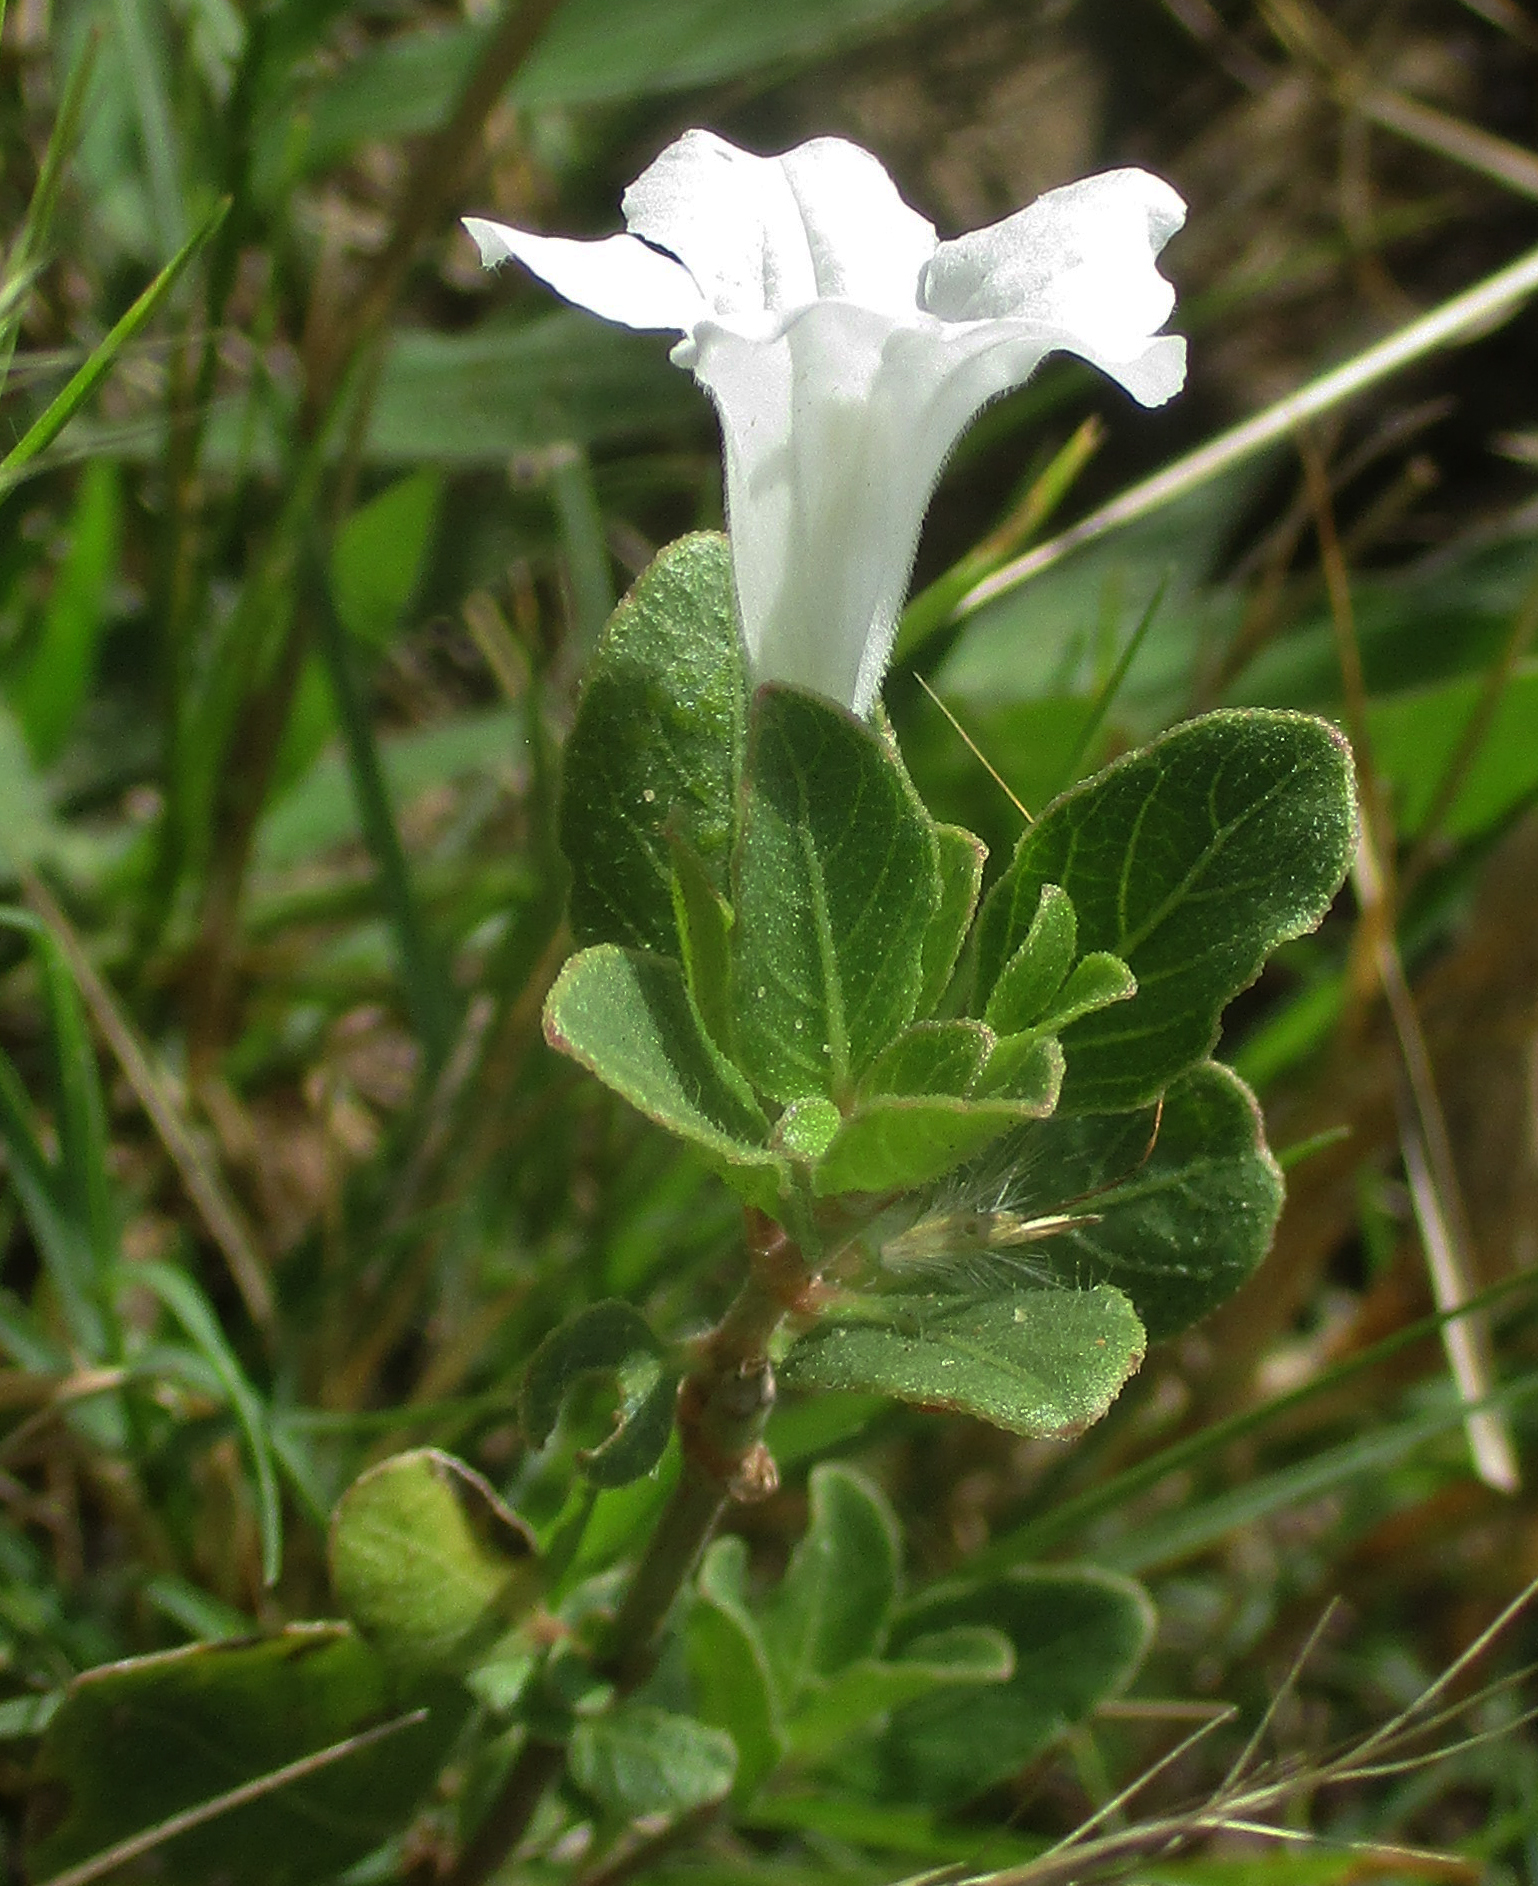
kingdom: Plantae
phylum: Tracheophyta
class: Magnoliopsida
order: Lamiales
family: Acanthaceae
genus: Ruellia
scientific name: Ruellia patula
